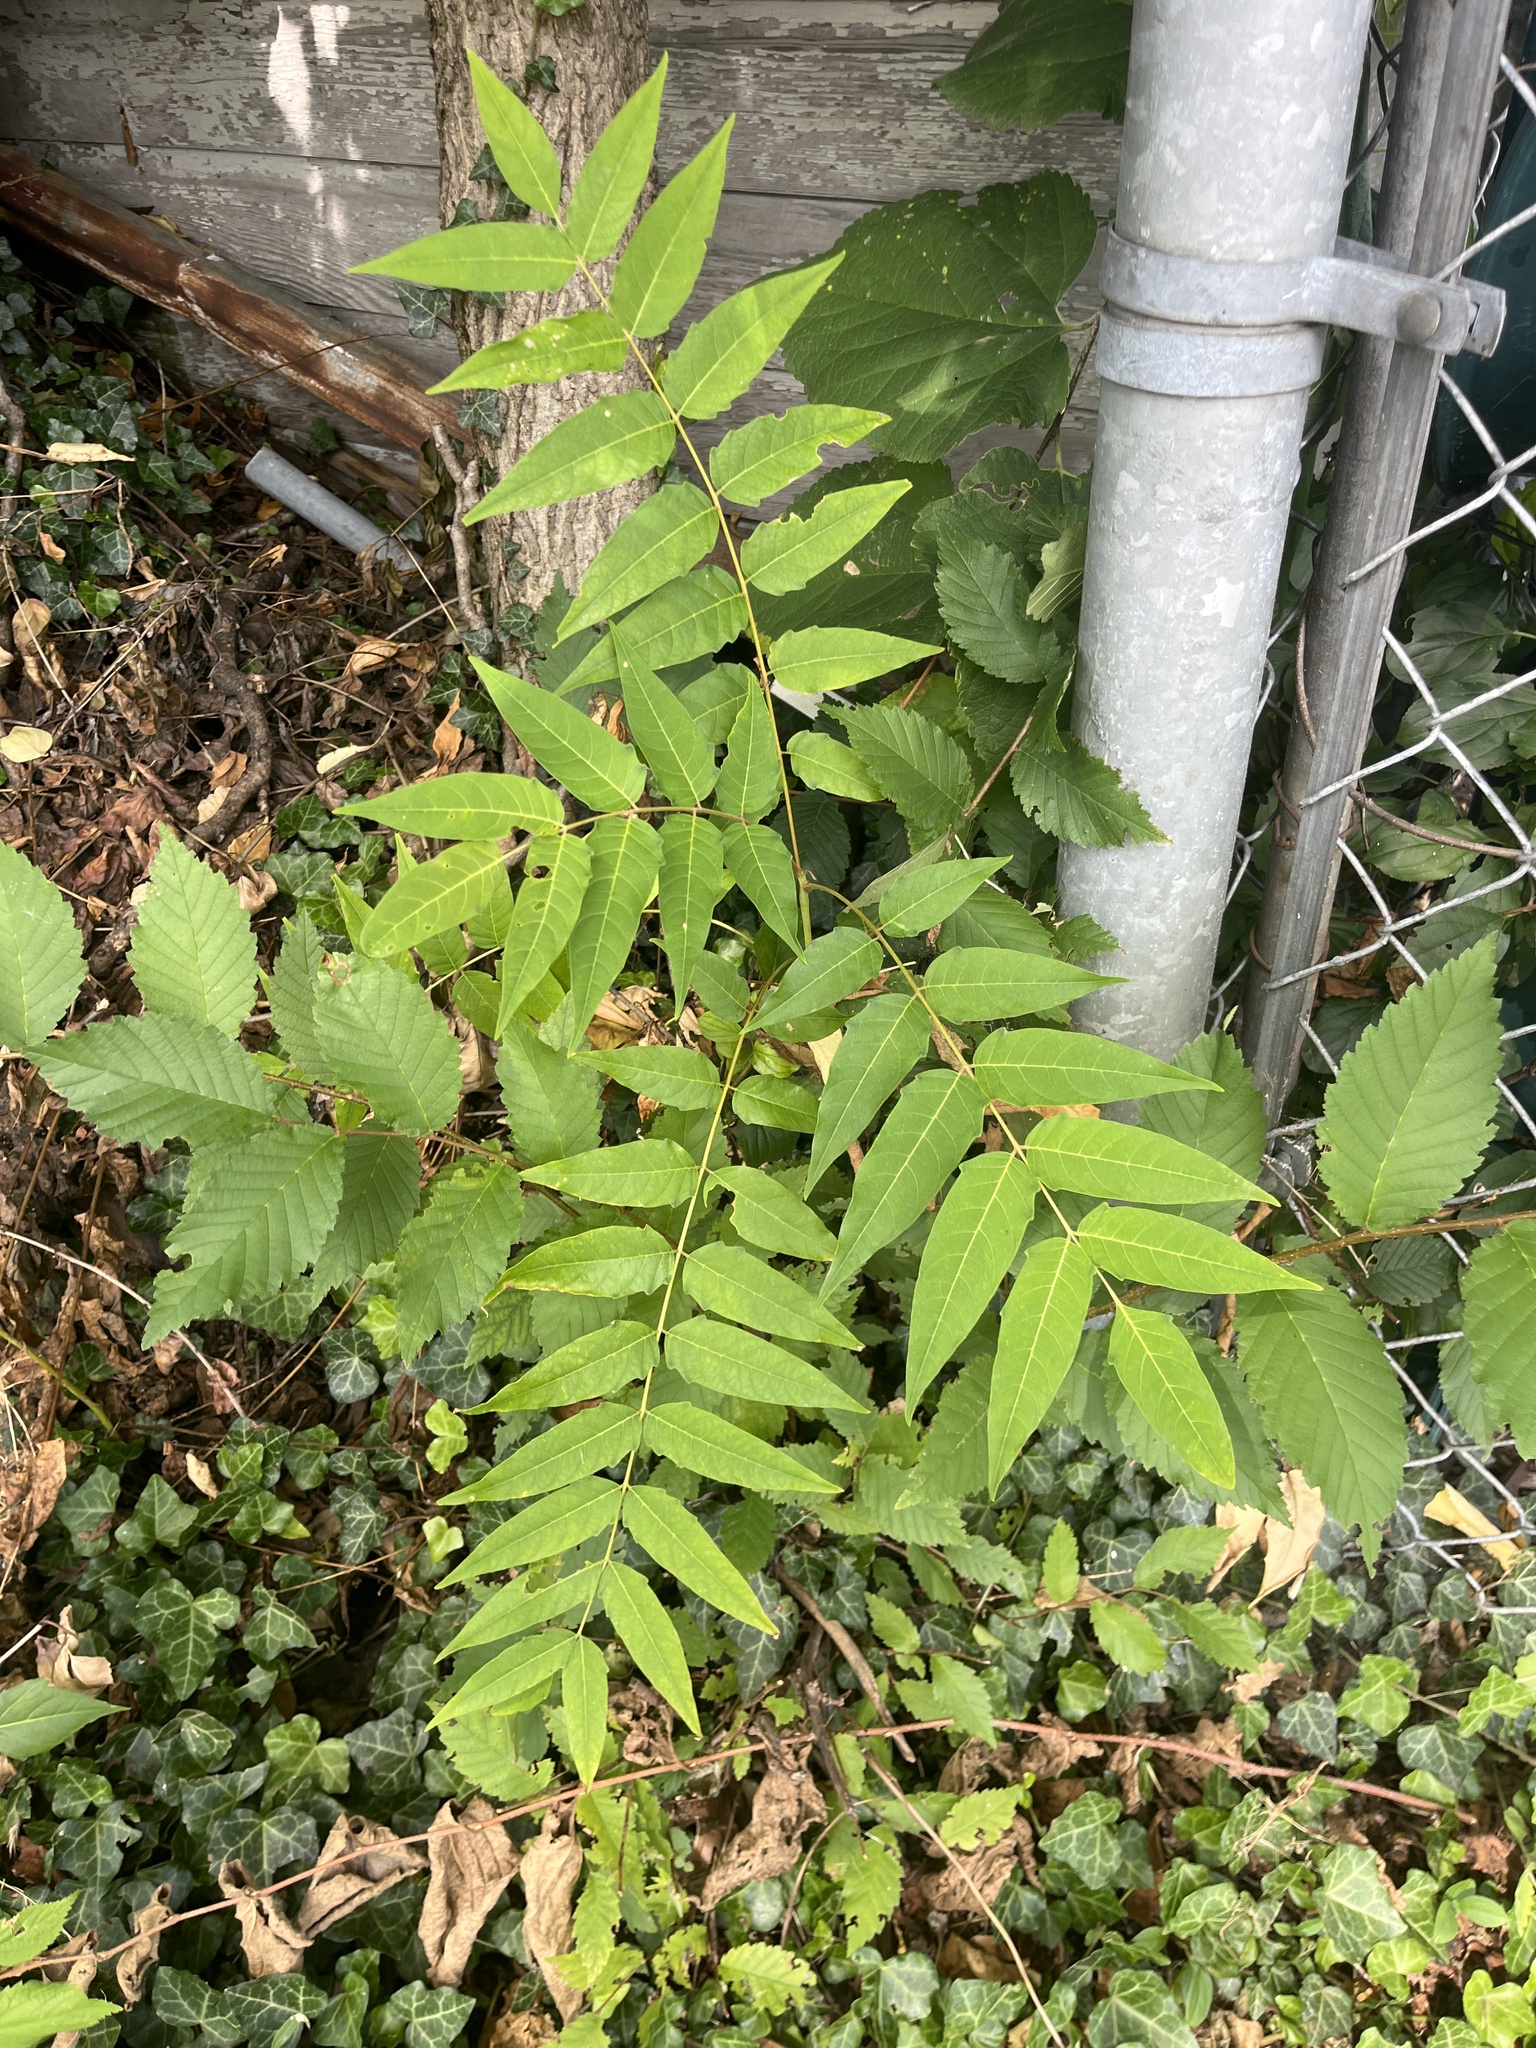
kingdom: Plantae
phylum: Tracheophyta
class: Magnoliopsida
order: Sapindales
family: Simaroubaceae
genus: Ailanthus
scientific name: Ailanthus altissima
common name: Tree-of-heaven
